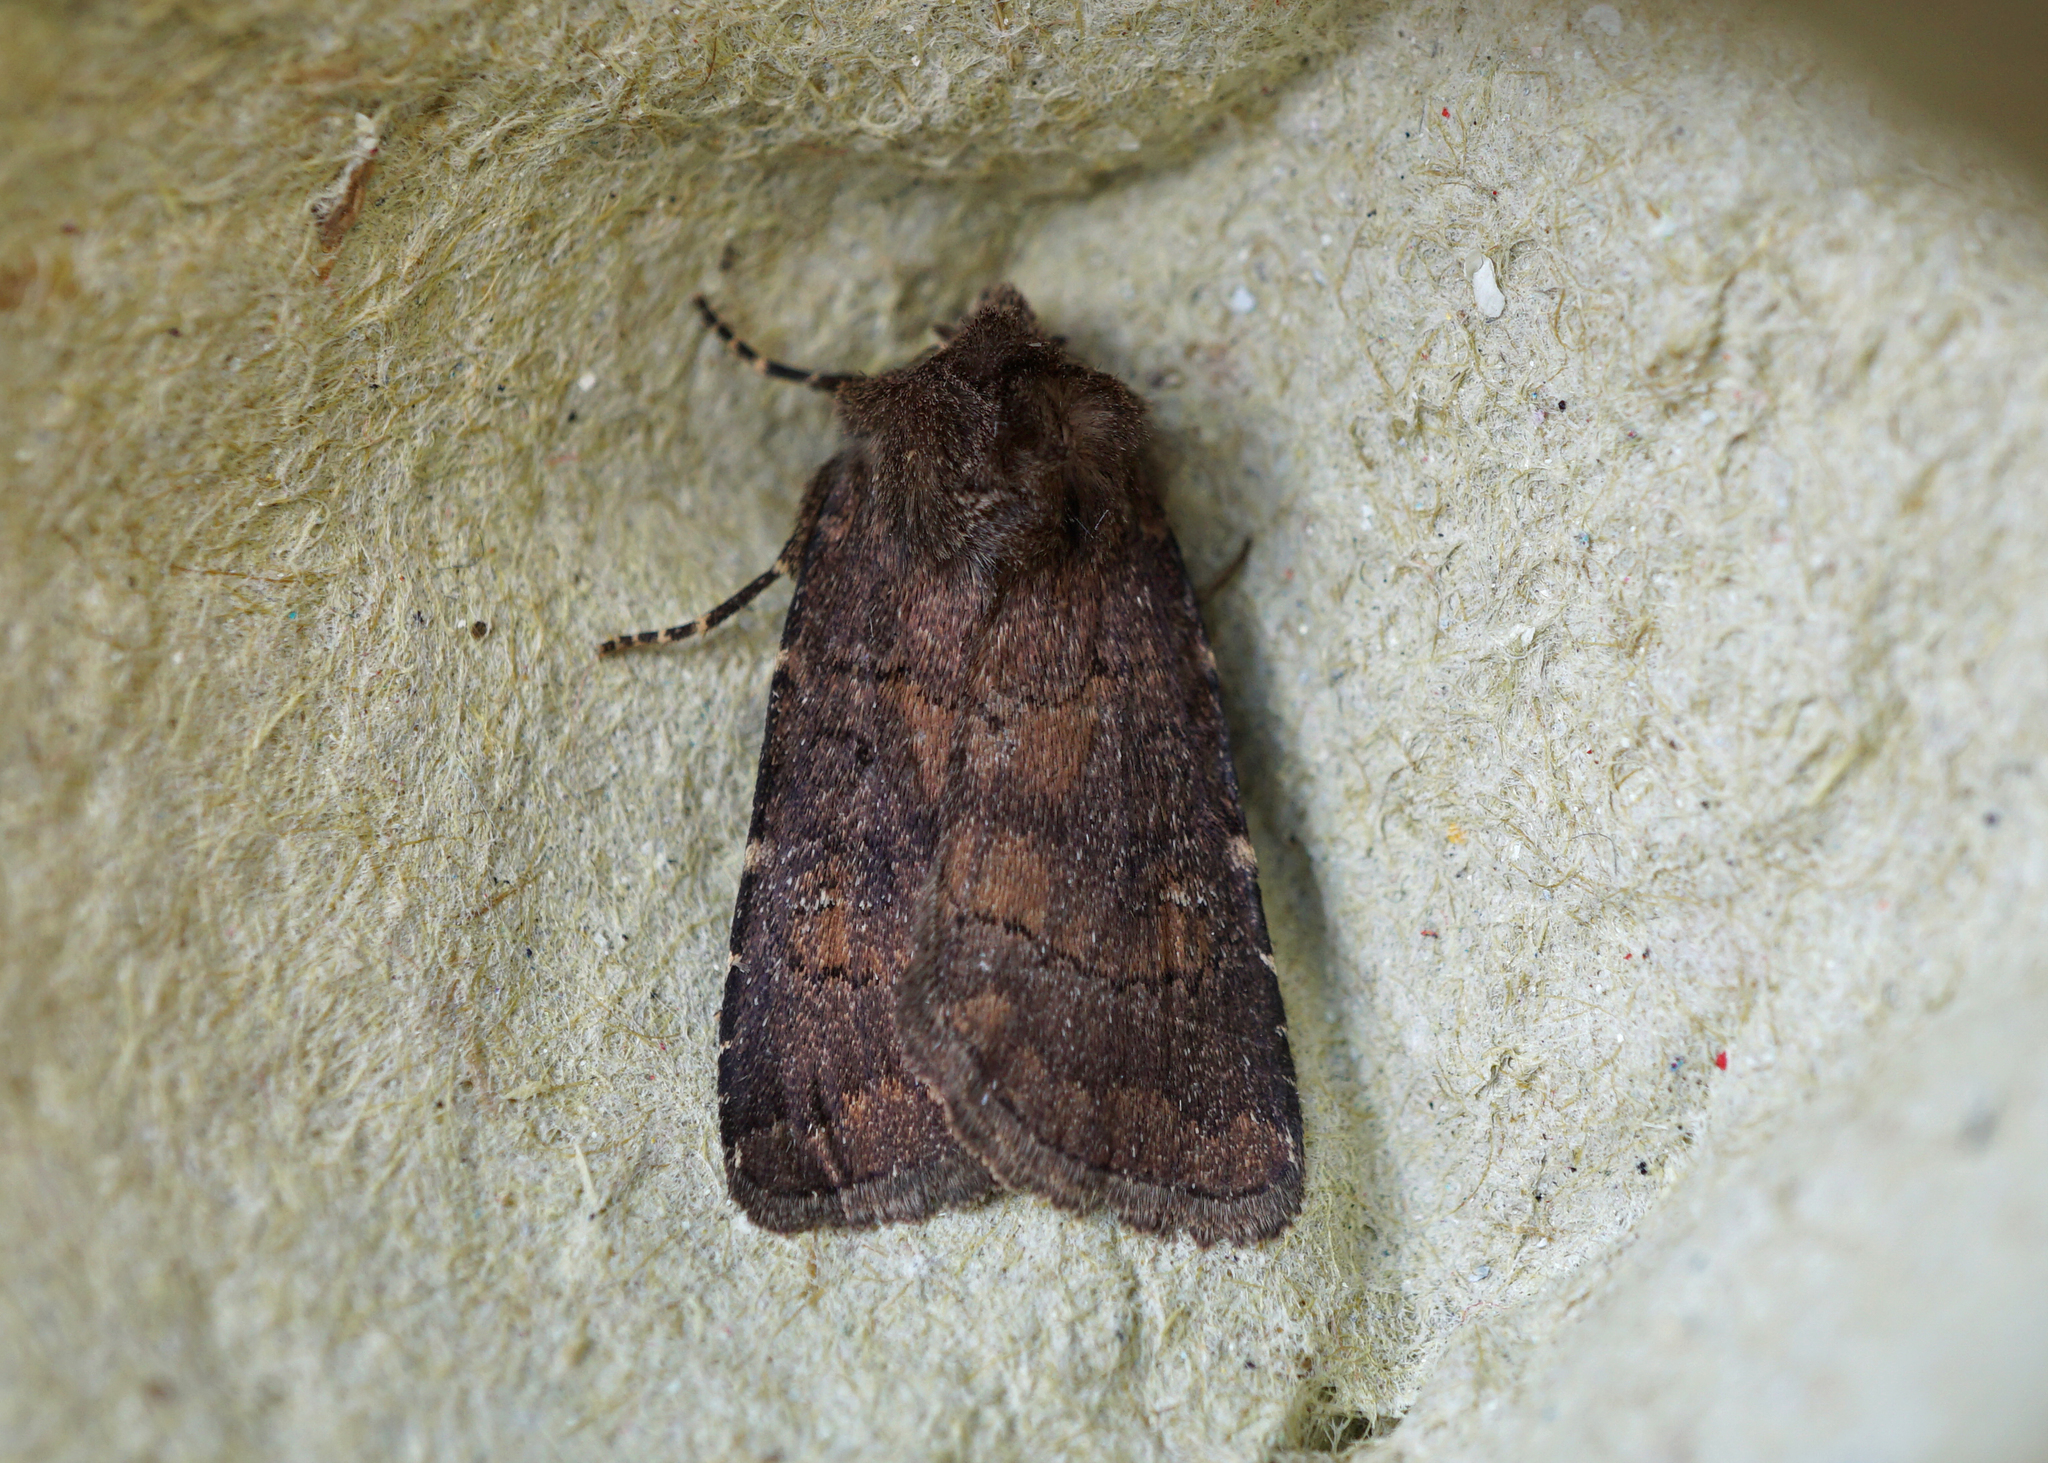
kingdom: Animalia
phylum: Arthropoda
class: Insecta
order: Lepidoptera
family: Noctuidae
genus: Charanyca
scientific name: Charanyca ferruginea
